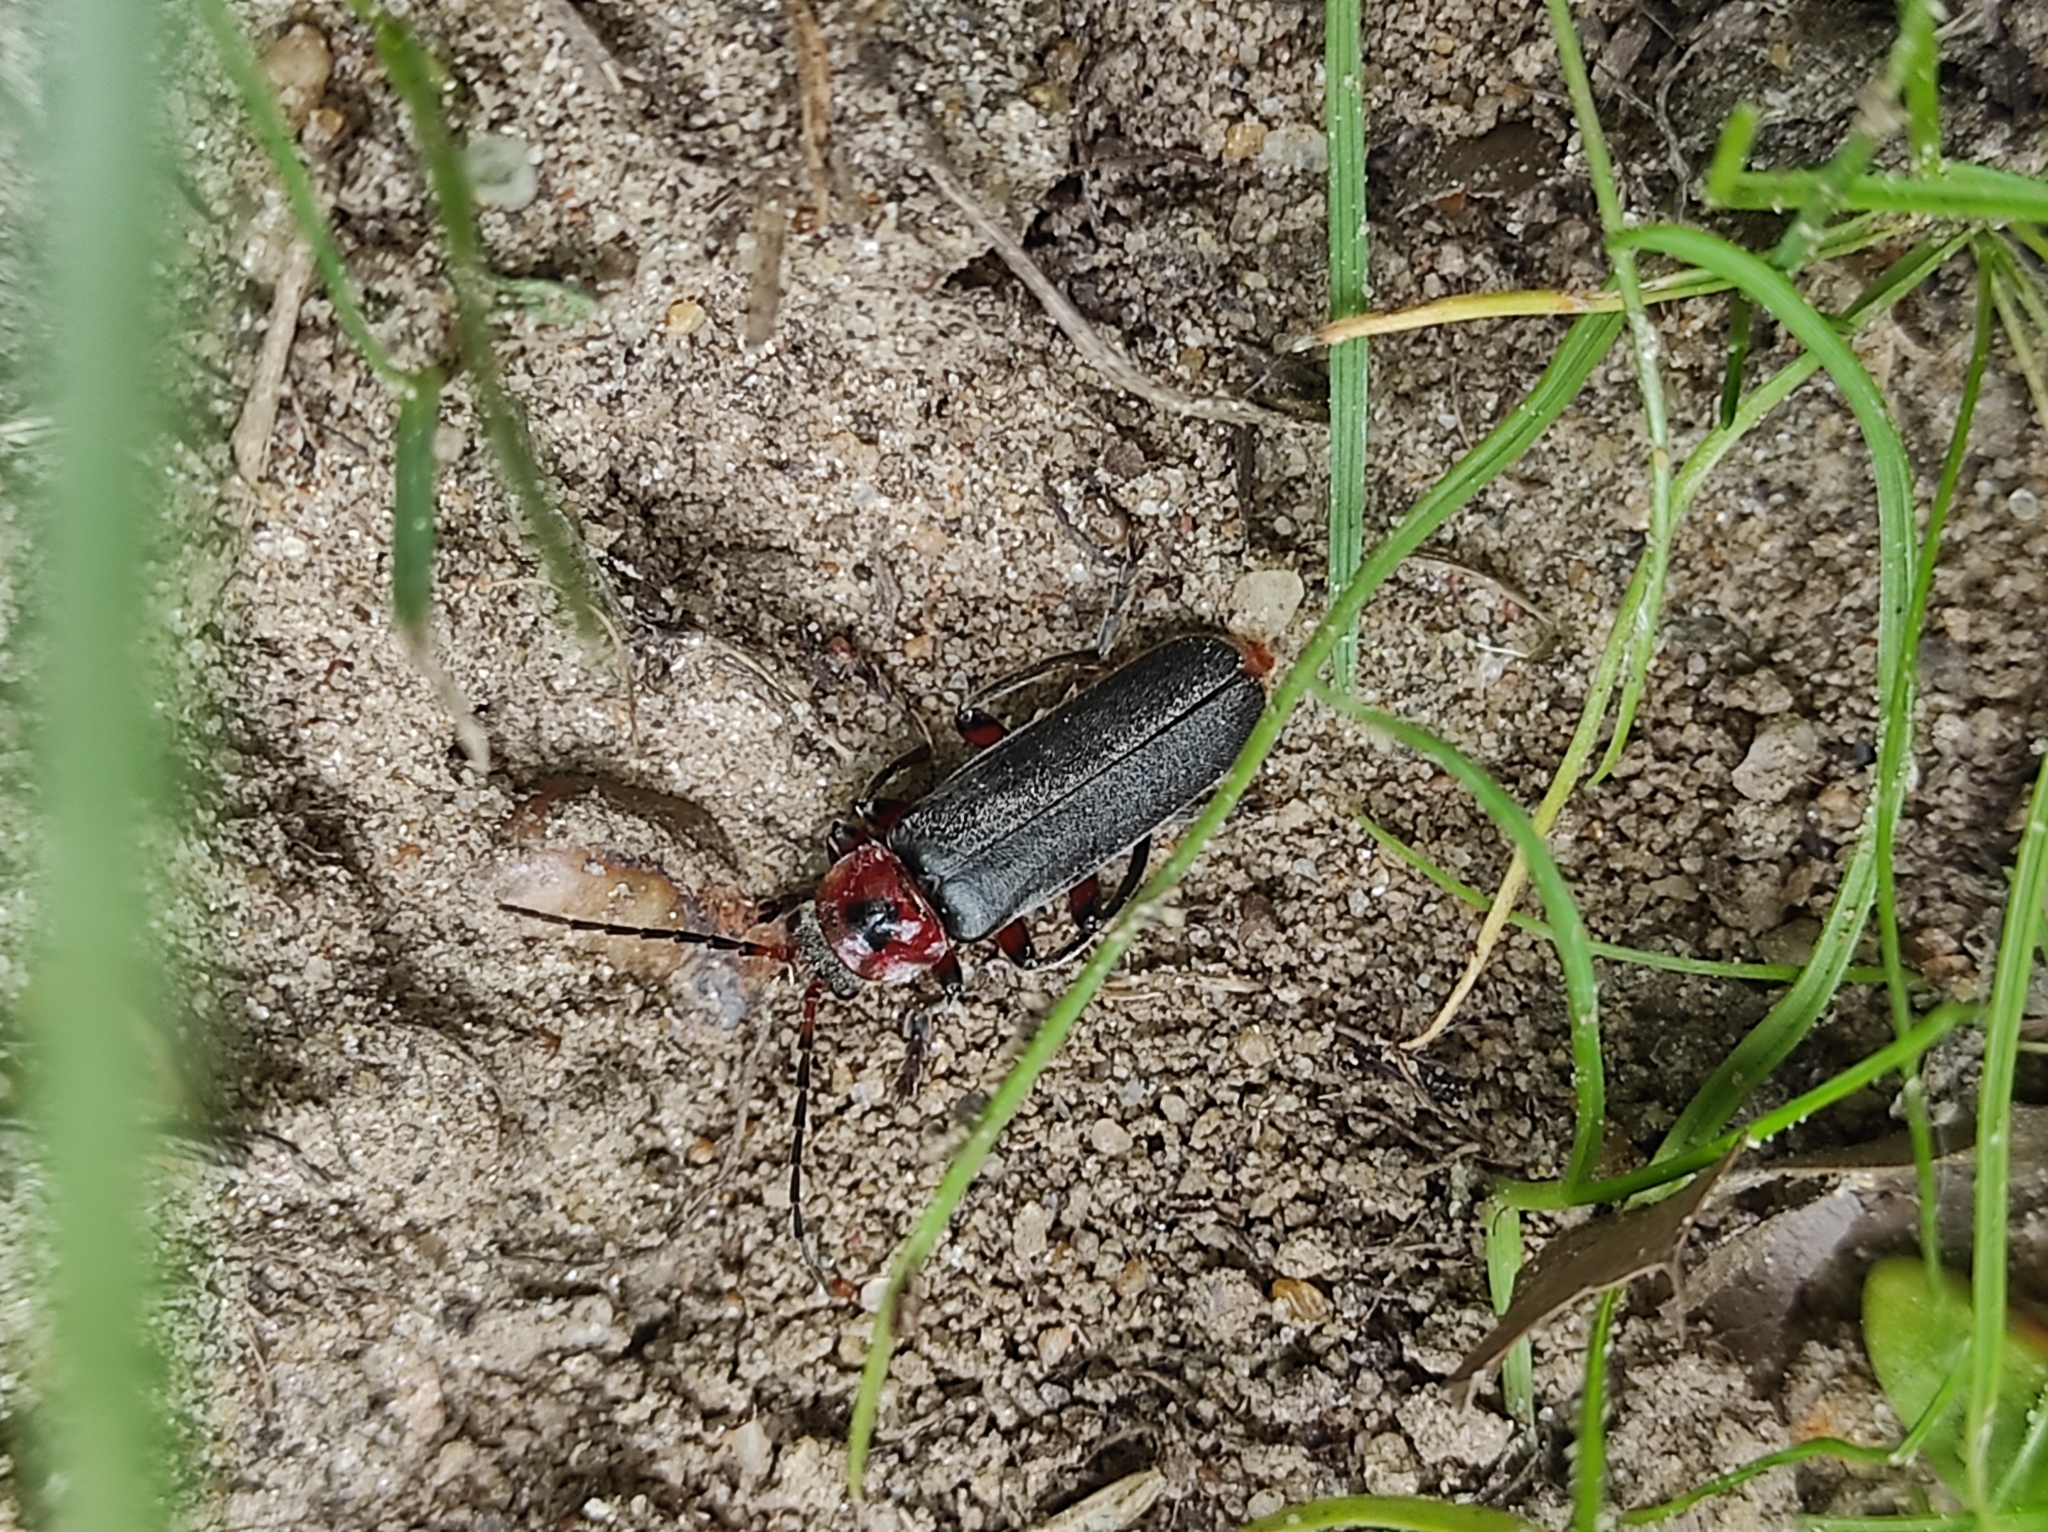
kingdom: Animalia
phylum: Arthropoda
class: Insecta
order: Coleoptera
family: Cantharidae
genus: Cantharis
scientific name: Cantharis rustica
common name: Soldier beetle
